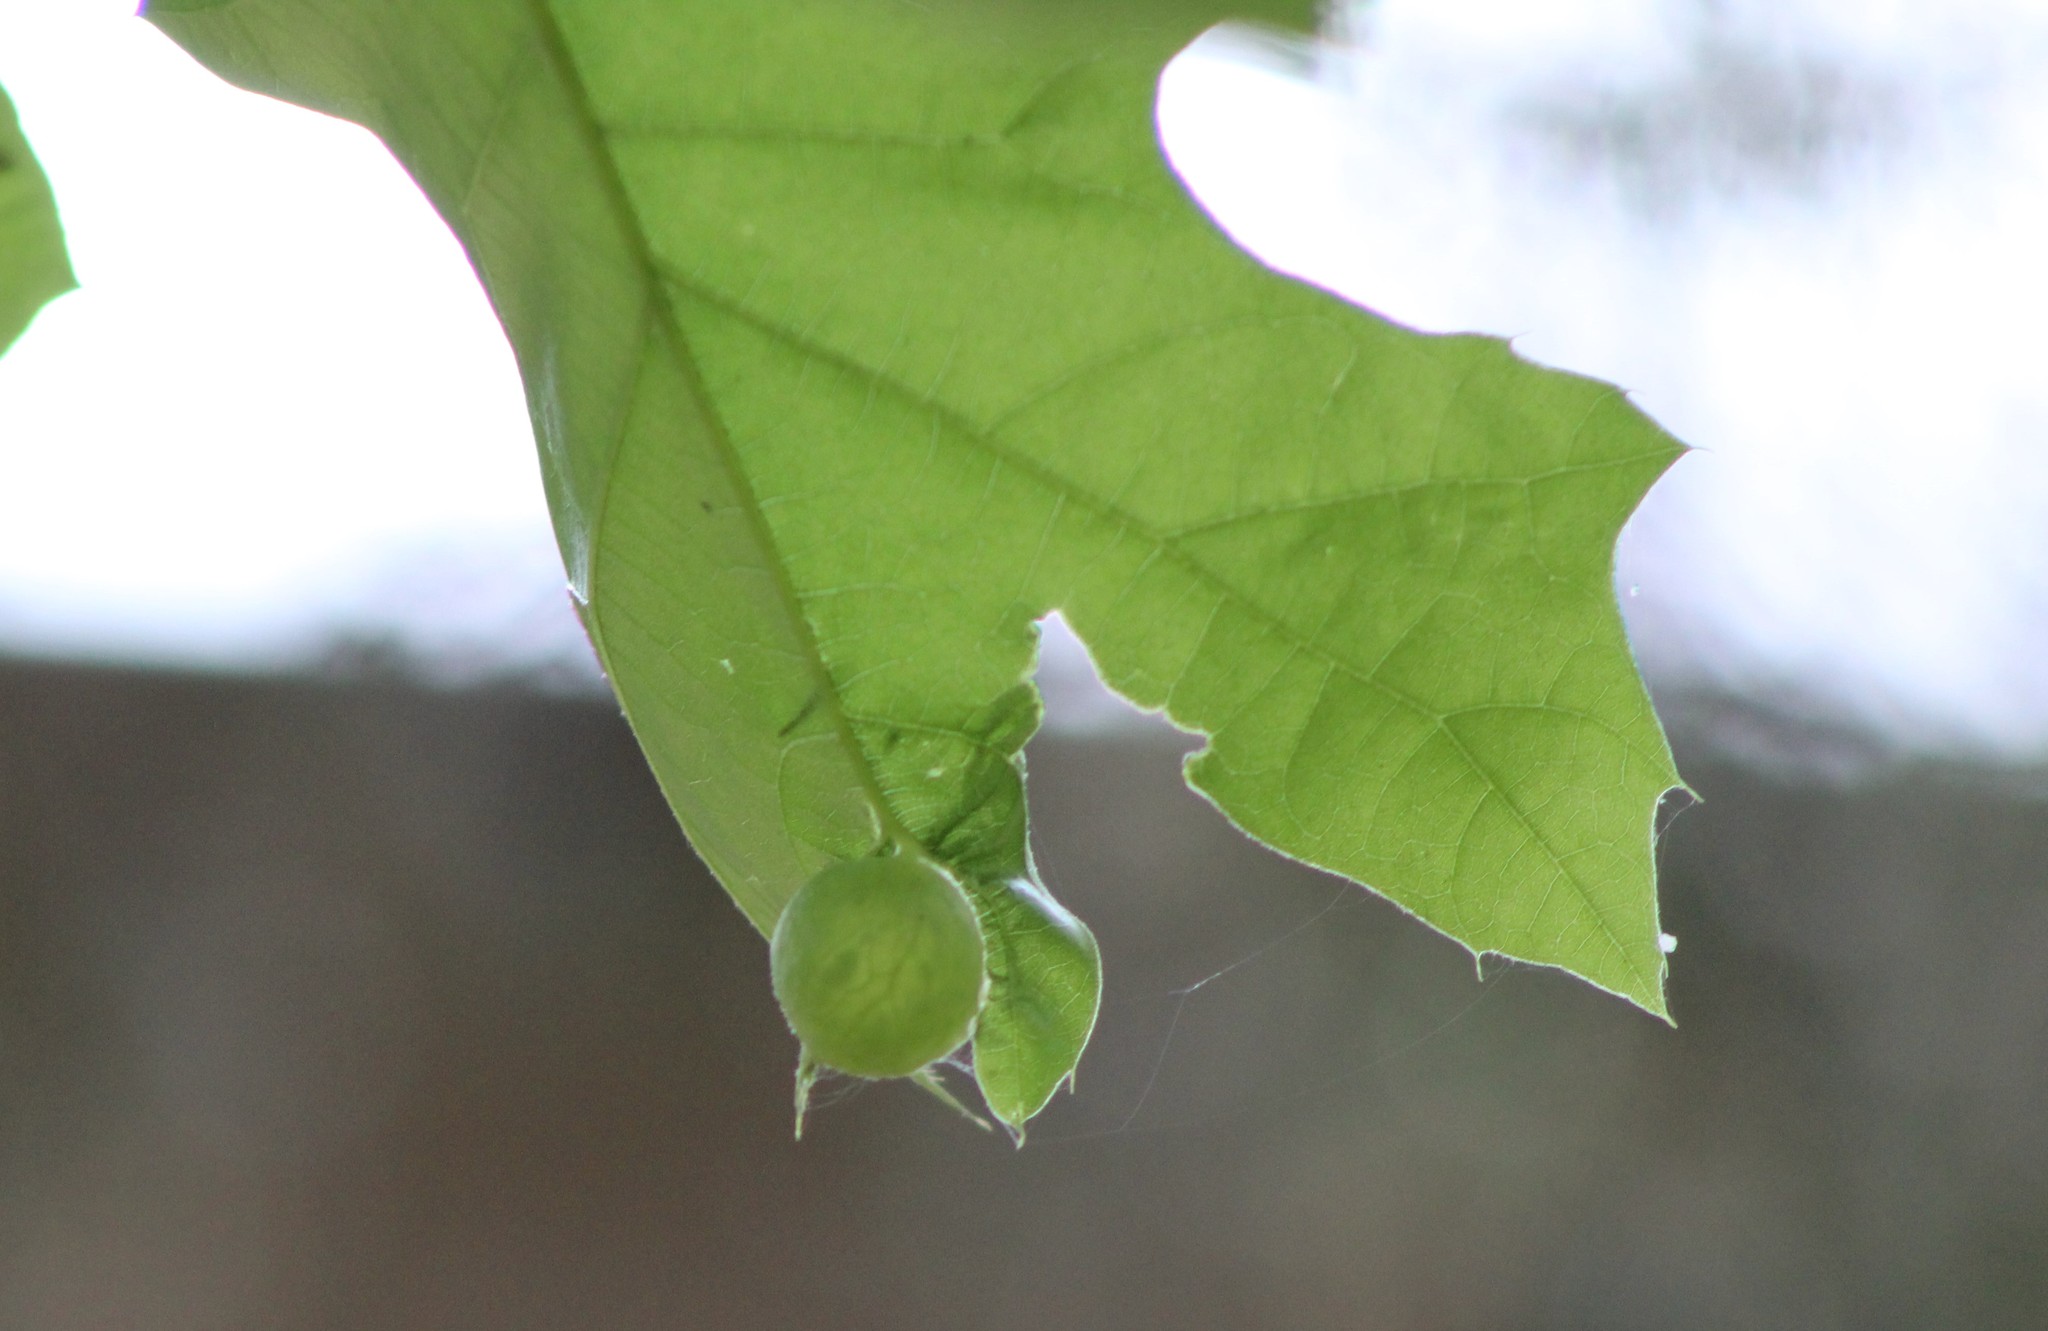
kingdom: Animalia
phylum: Arthropoda
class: Insecta
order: Hymenoptera
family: Cynipidae
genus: Dryocosmus
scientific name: Dryocosmus quercuspalustris
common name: Succulent oak gall wasp
